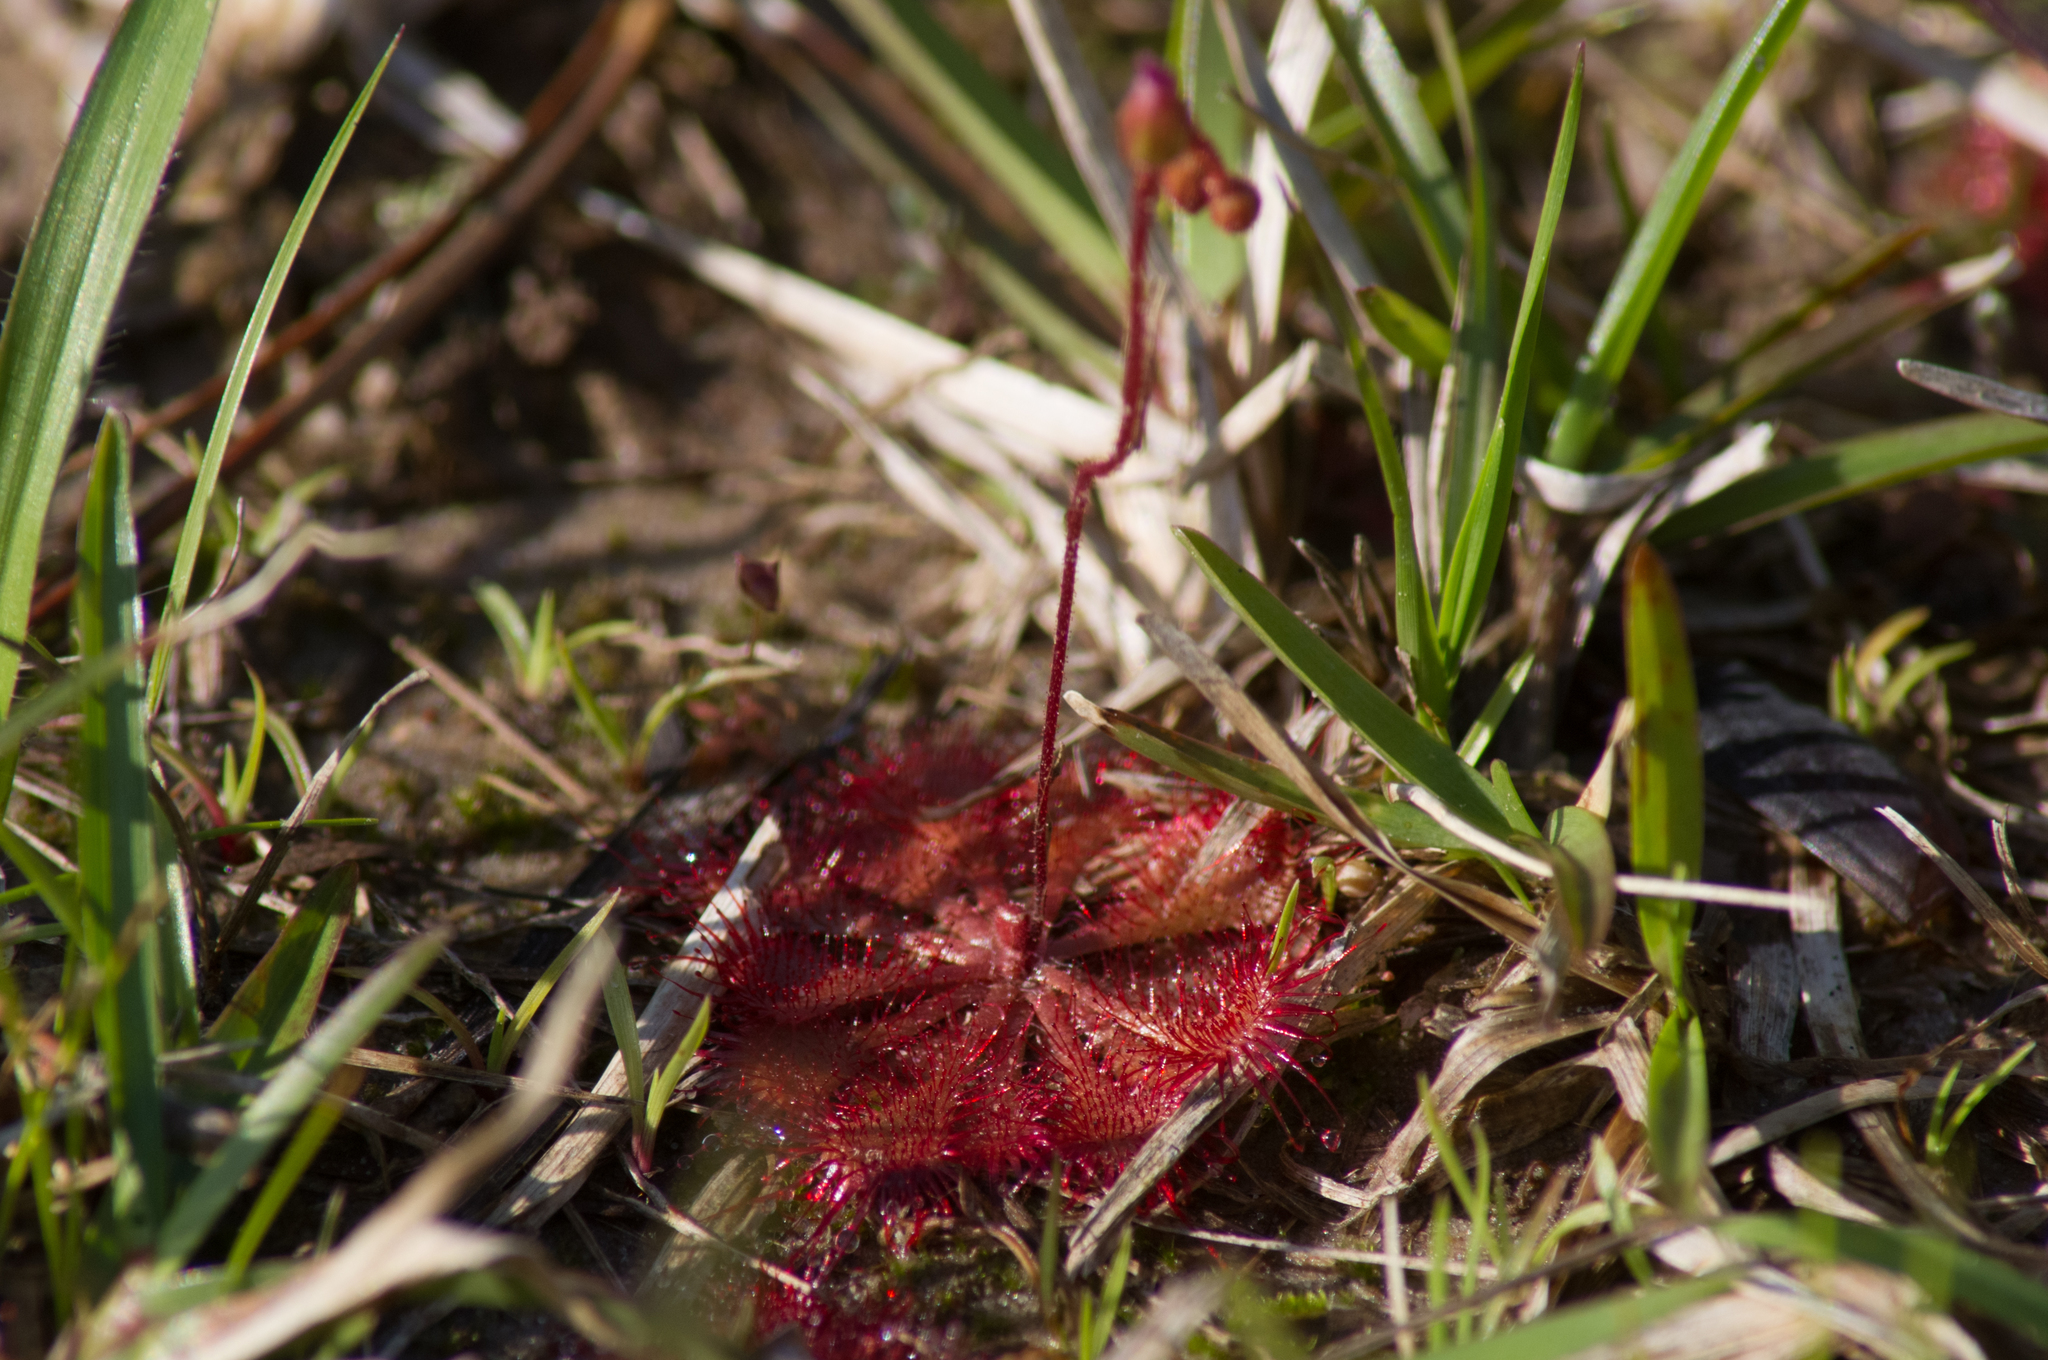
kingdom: Plantae
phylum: Tracheophyta
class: Magnoliopsida
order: Caryophyllales
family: Droseraceae
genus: Drosera
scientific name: Drosera brevifolia
